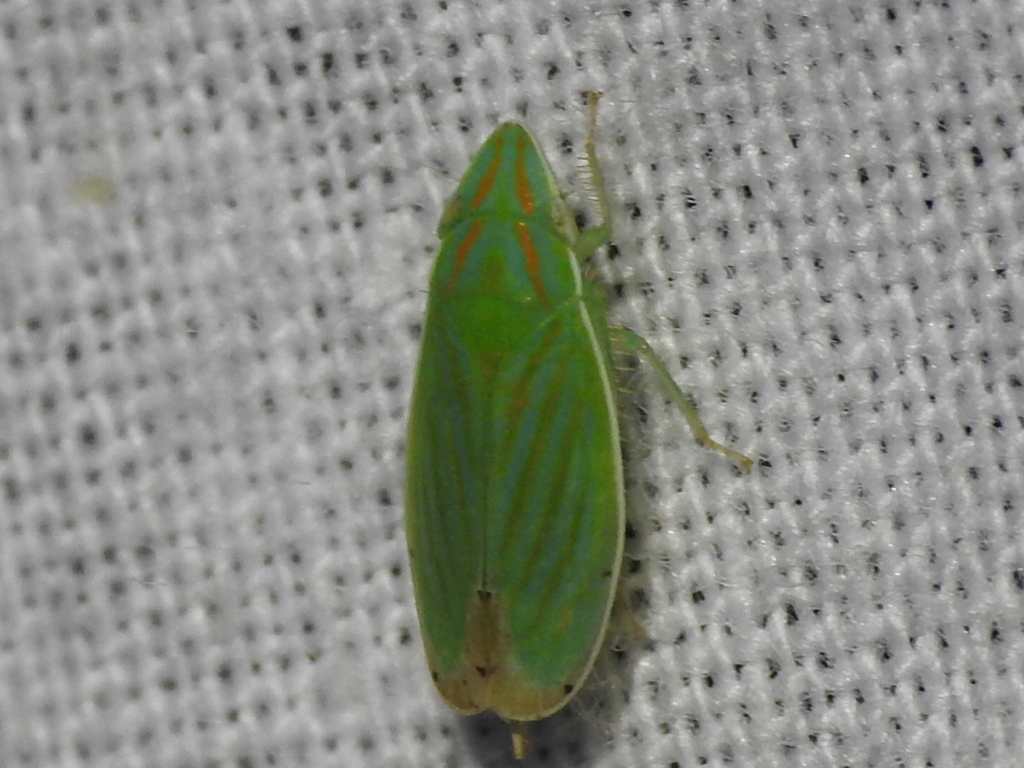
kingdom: Animalia
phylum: Arthropoda
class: Insecta
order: Hemiptera
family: Cicadellidae
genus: Spangbergiella
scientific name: Spangbergiella quadripunctata
